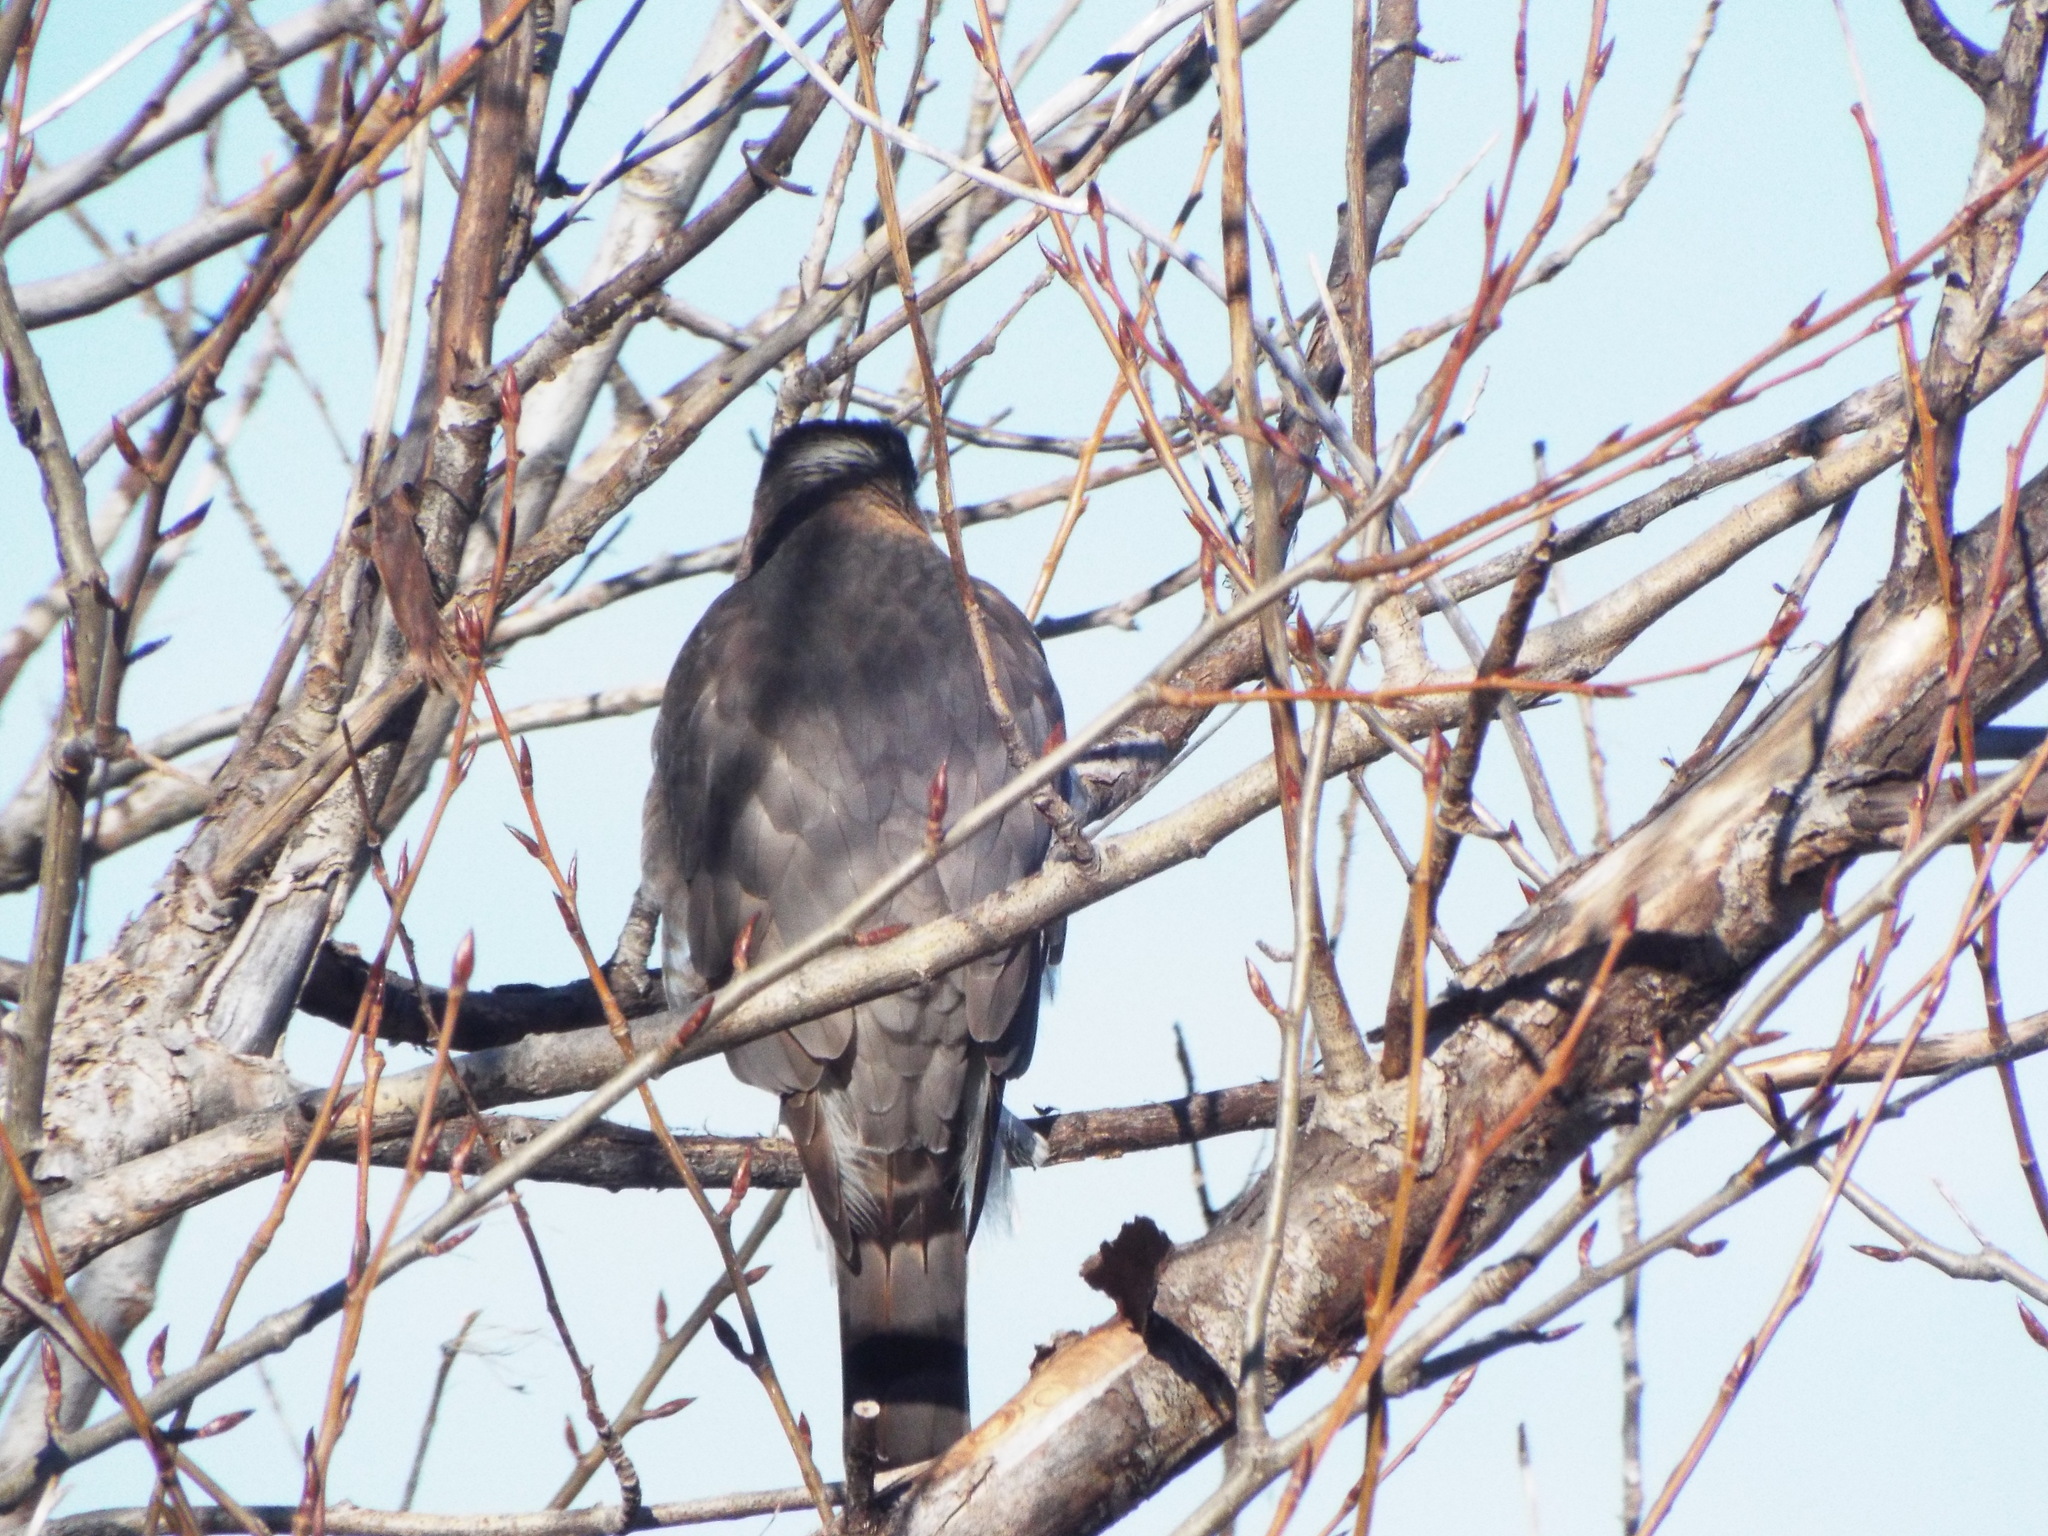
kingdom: Animalia
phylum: Chordata
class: Aves
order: Accipitriformes
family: Accipitridae
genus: Accipiter
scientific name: Accipiter cooperii
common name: Cooper's hawk
